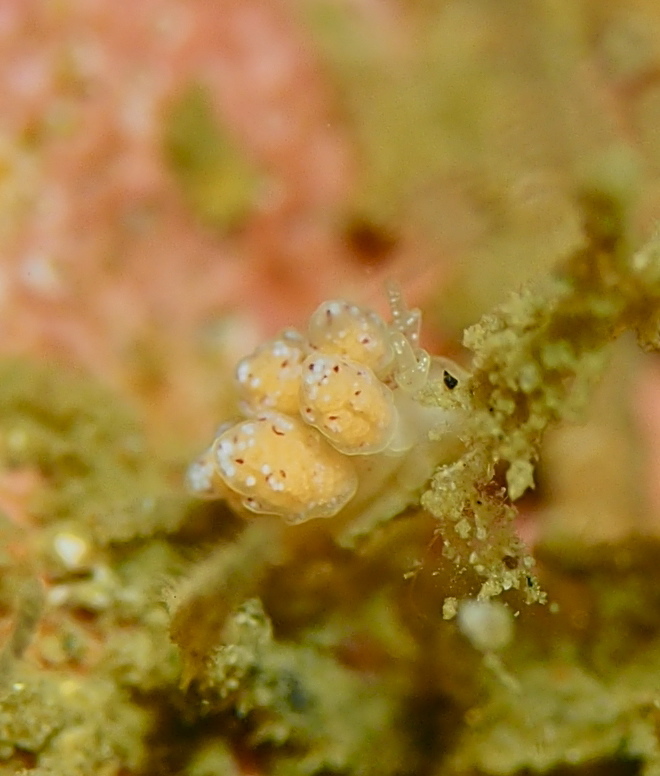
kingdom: Animalia
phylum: Mollusca
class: Gastropoda
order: Nudibranchia
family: Dotidae
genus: Doto
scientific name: Doto dunnei
